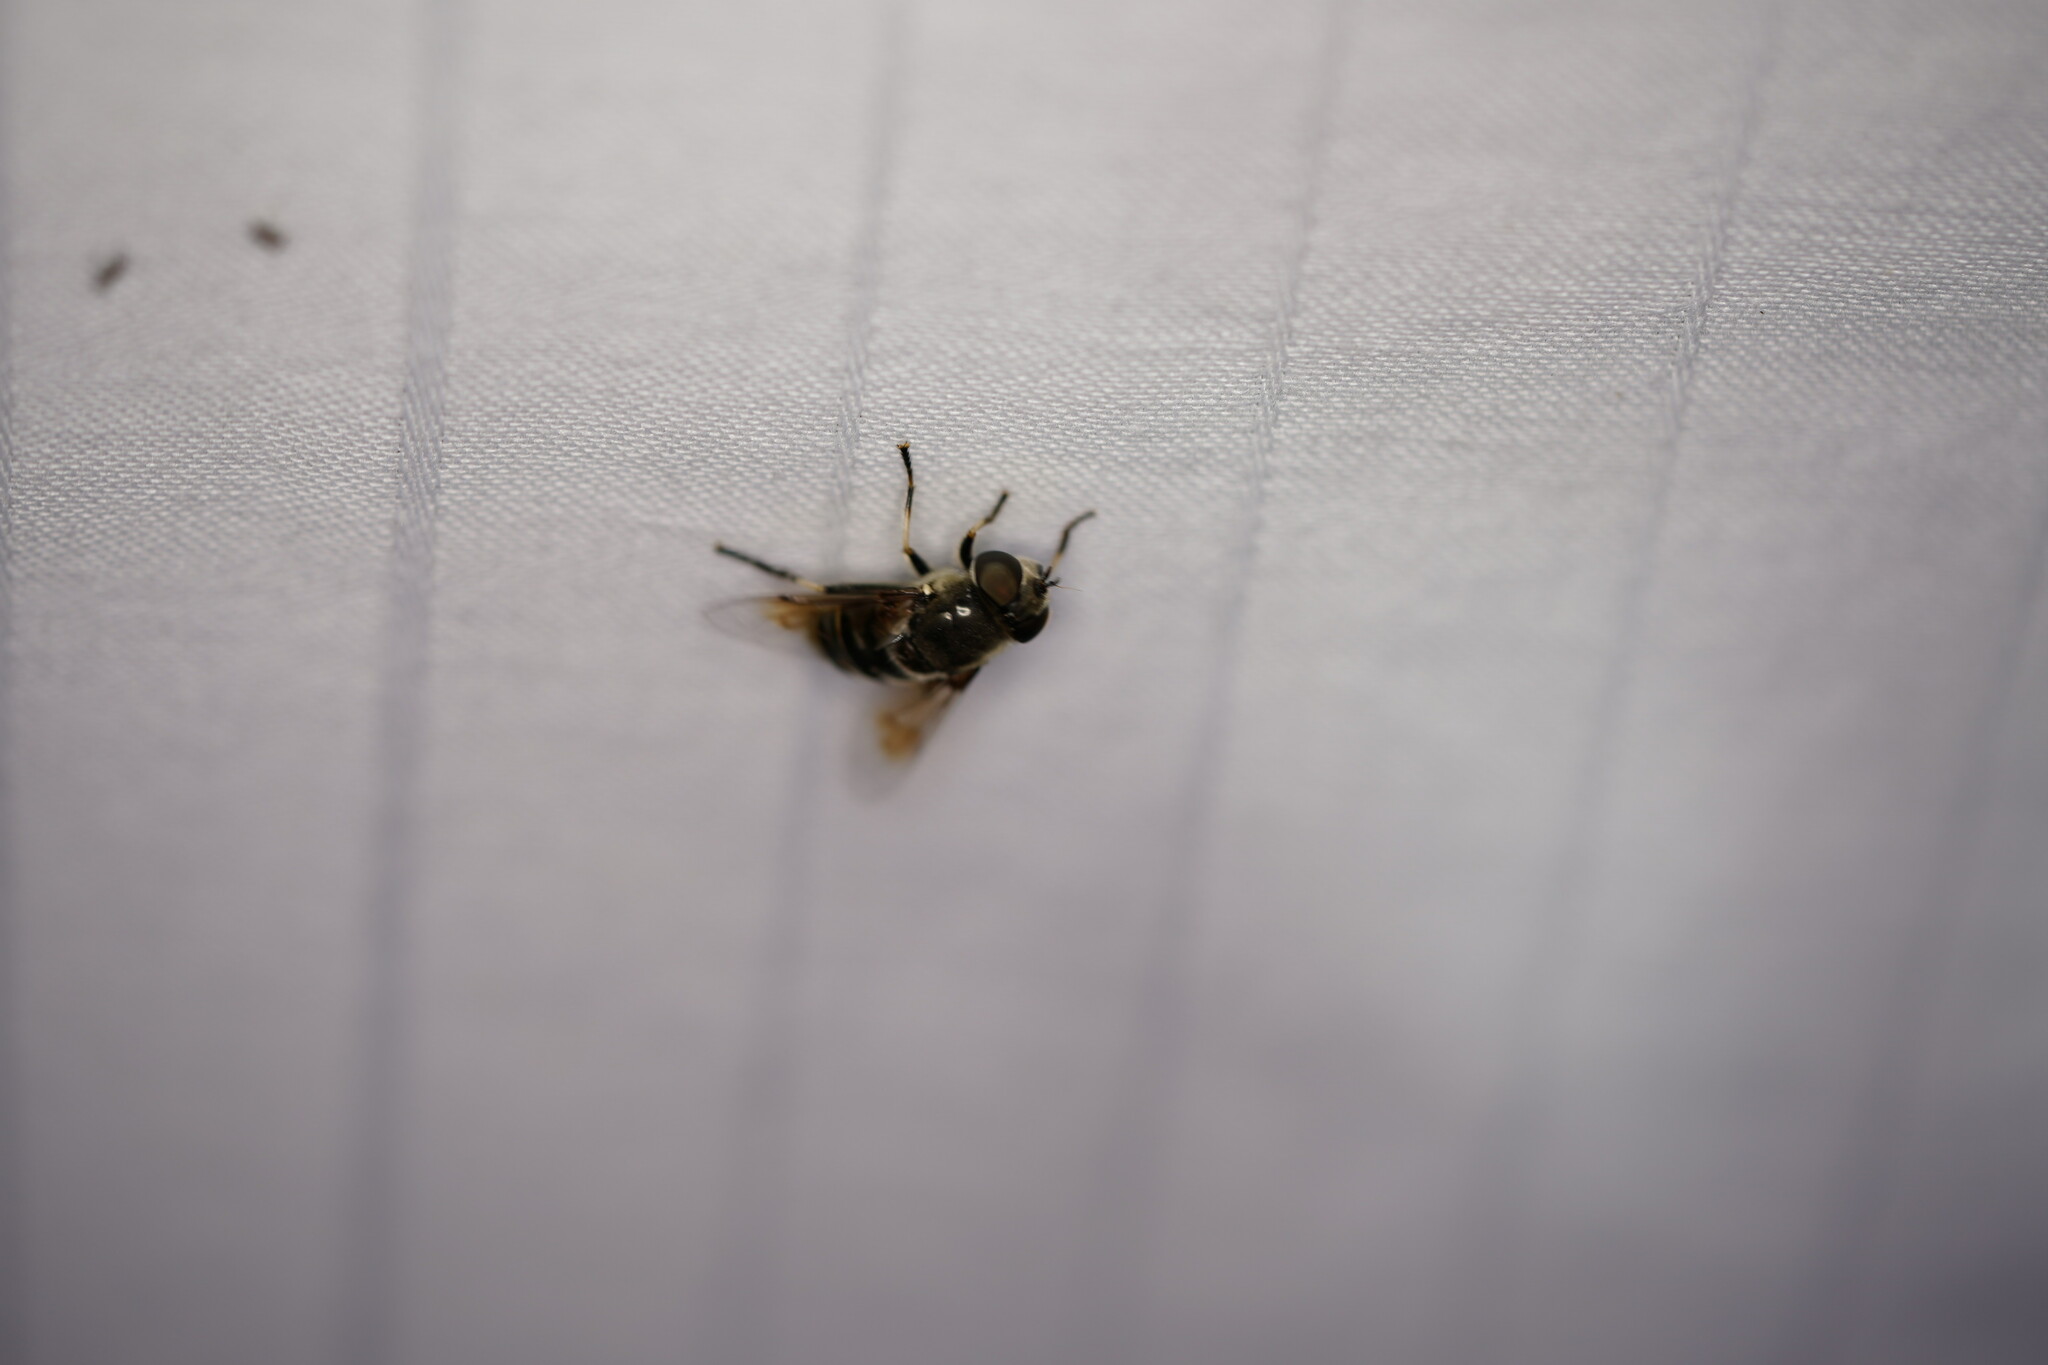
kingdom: Animalia
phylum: Arthropoda
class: Insecta
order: Diptera
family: Syrphidae
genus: Eristalis
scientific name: Eristalis dimidiata
